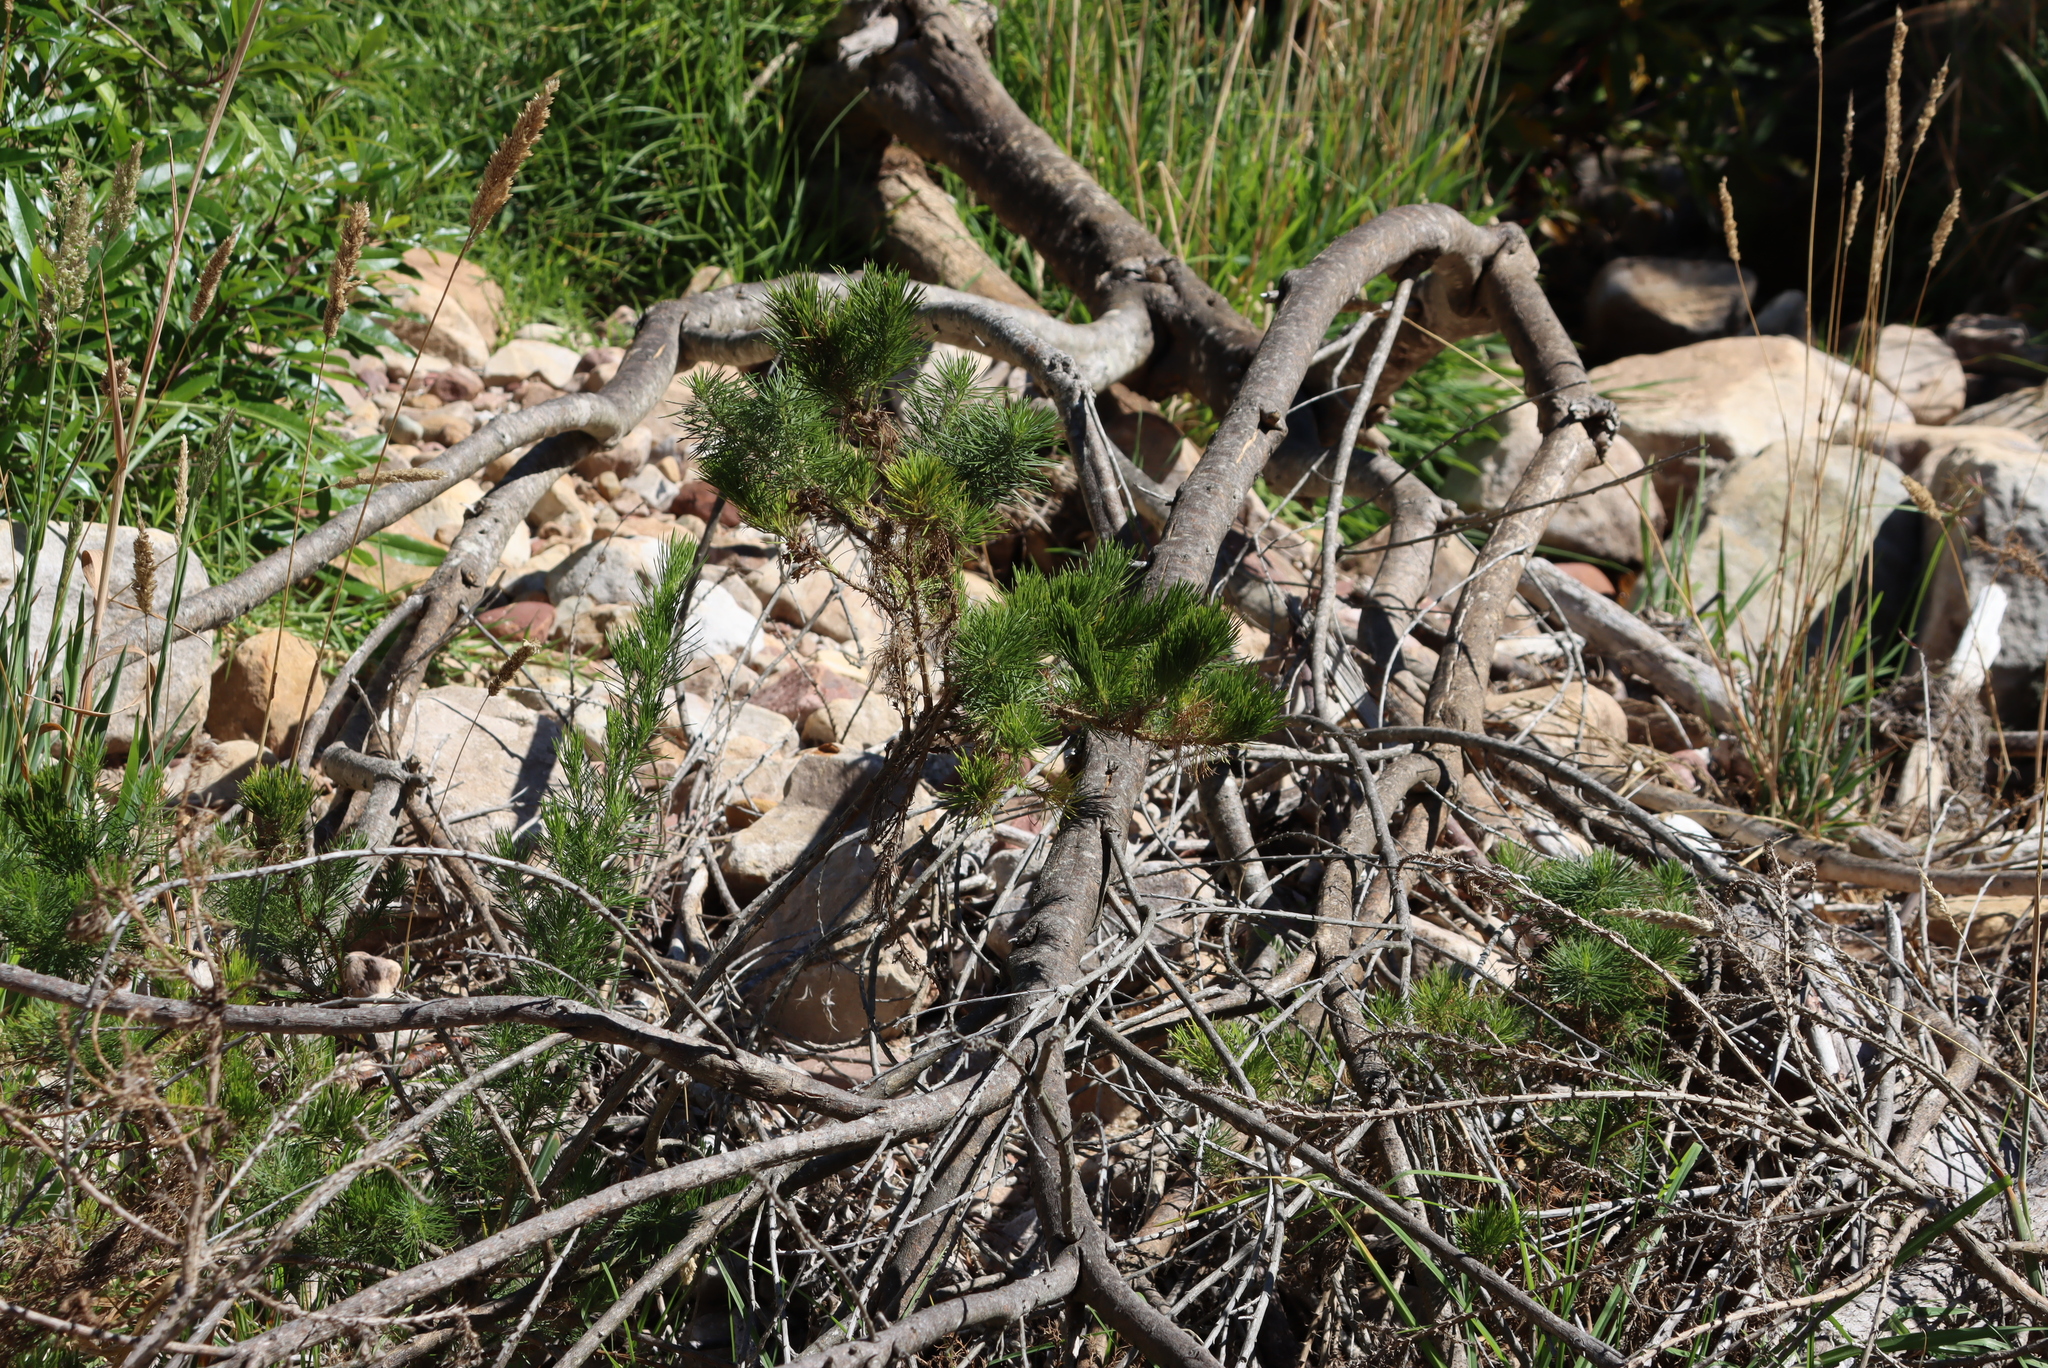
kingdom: Plantae
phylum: Tracheophyta
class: Magnoliopsida
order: Fabales
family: Fabaceae
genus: Psoralea
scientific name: Psoralea pinnata
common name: African scurfpea
